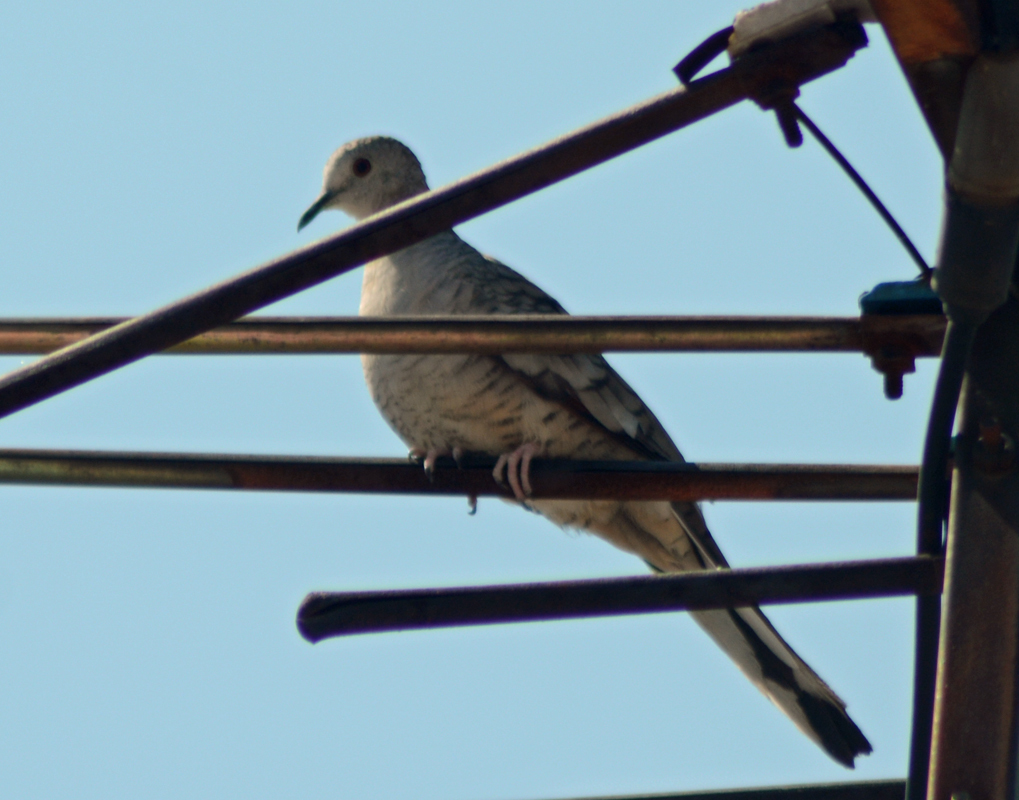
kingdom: Animalia
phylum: Chordata
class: Aves
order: Columbiformes
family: Columbidae
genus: Columbina
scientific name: Columbina inca
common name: Inca dove
